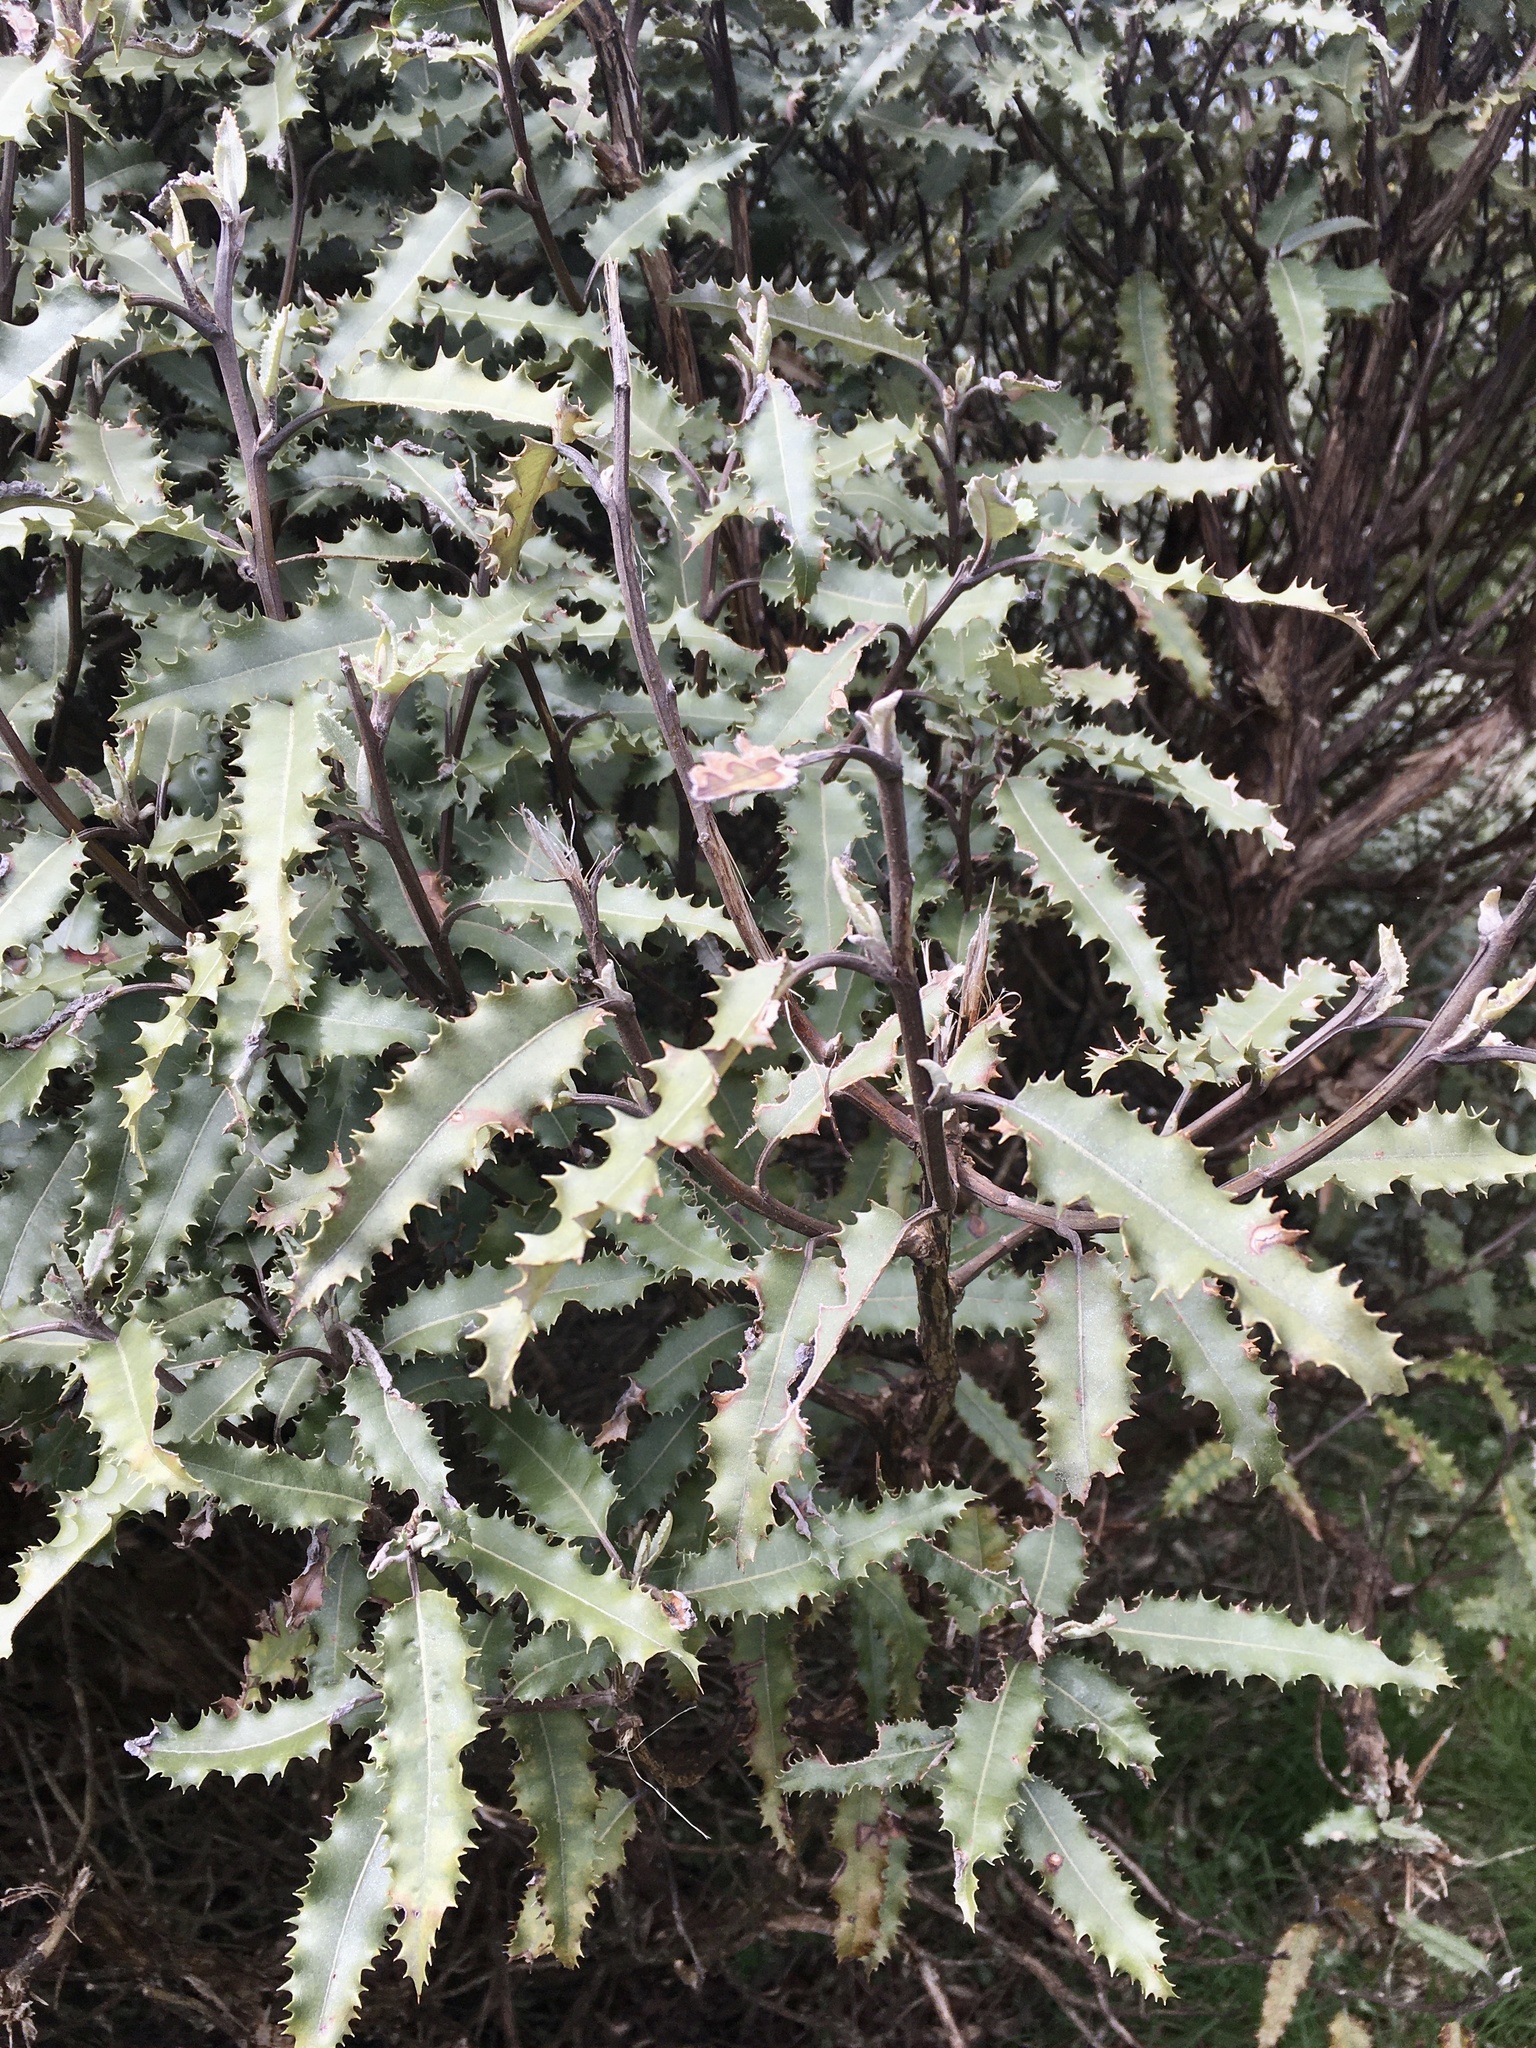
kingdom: Plantae
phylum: Tracheophyta
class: Magnoliopsida
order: Asterales
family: Asteraceae
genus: Olearia
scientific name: Olearia ilicifolia
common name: Maori-holly
